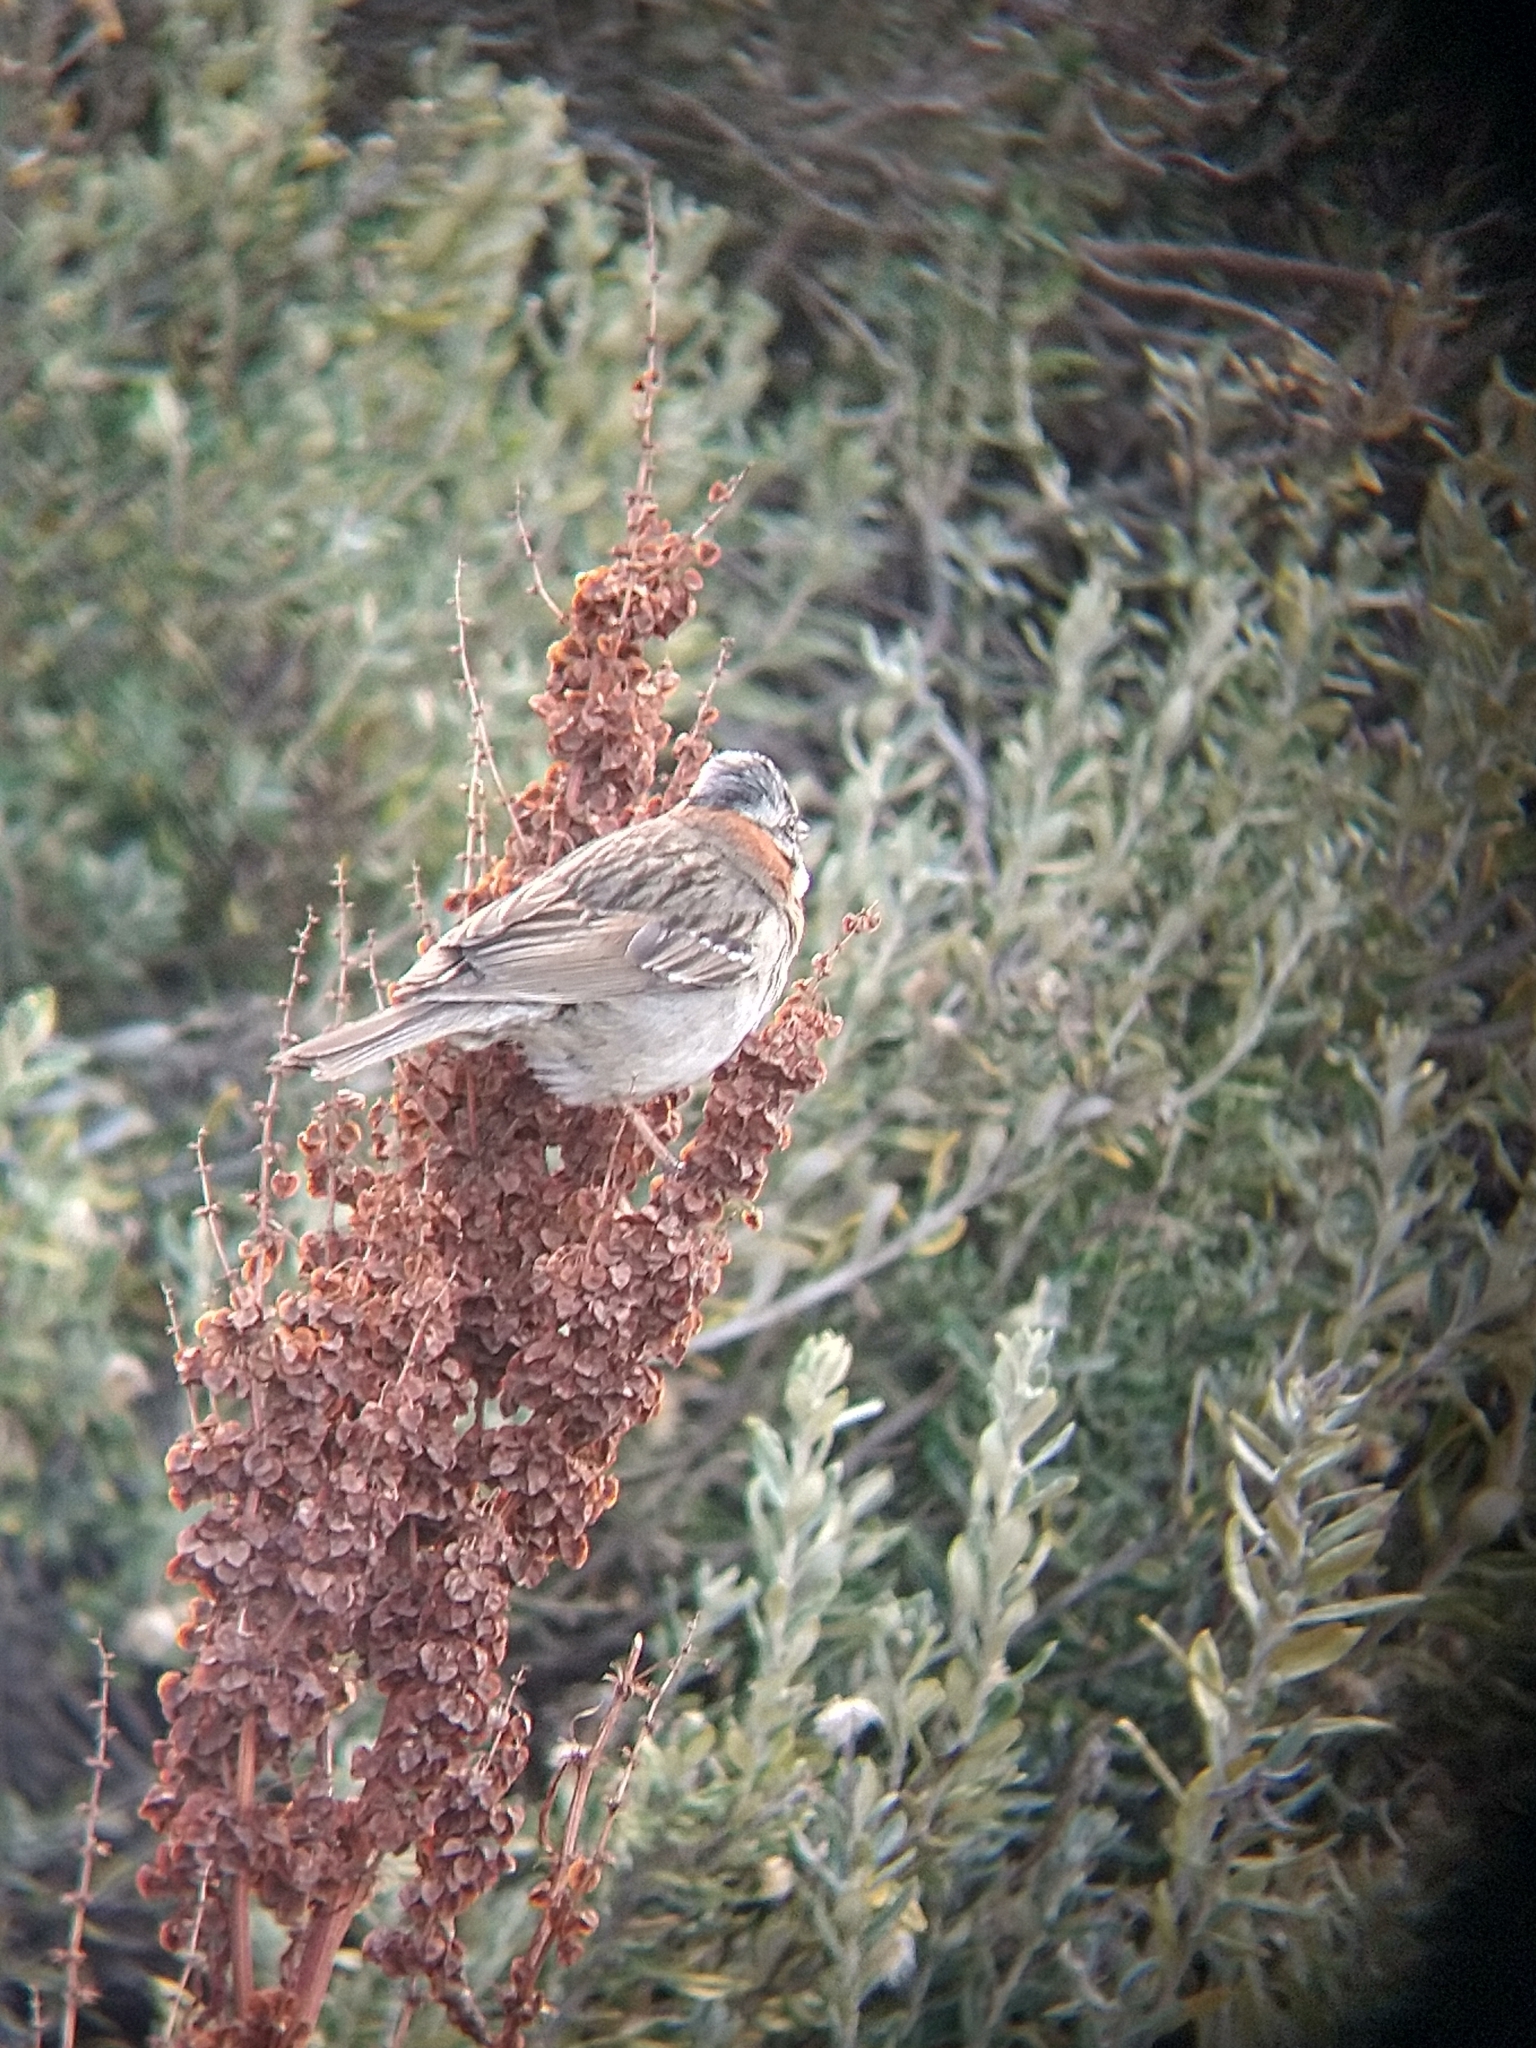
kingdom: Animalia
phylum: Chordata
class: Aves
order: Passeriformes
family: Passerellidae
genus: Zonotrichia
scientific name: Zonotrichia capensis
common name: Rufous-collared sparrow
